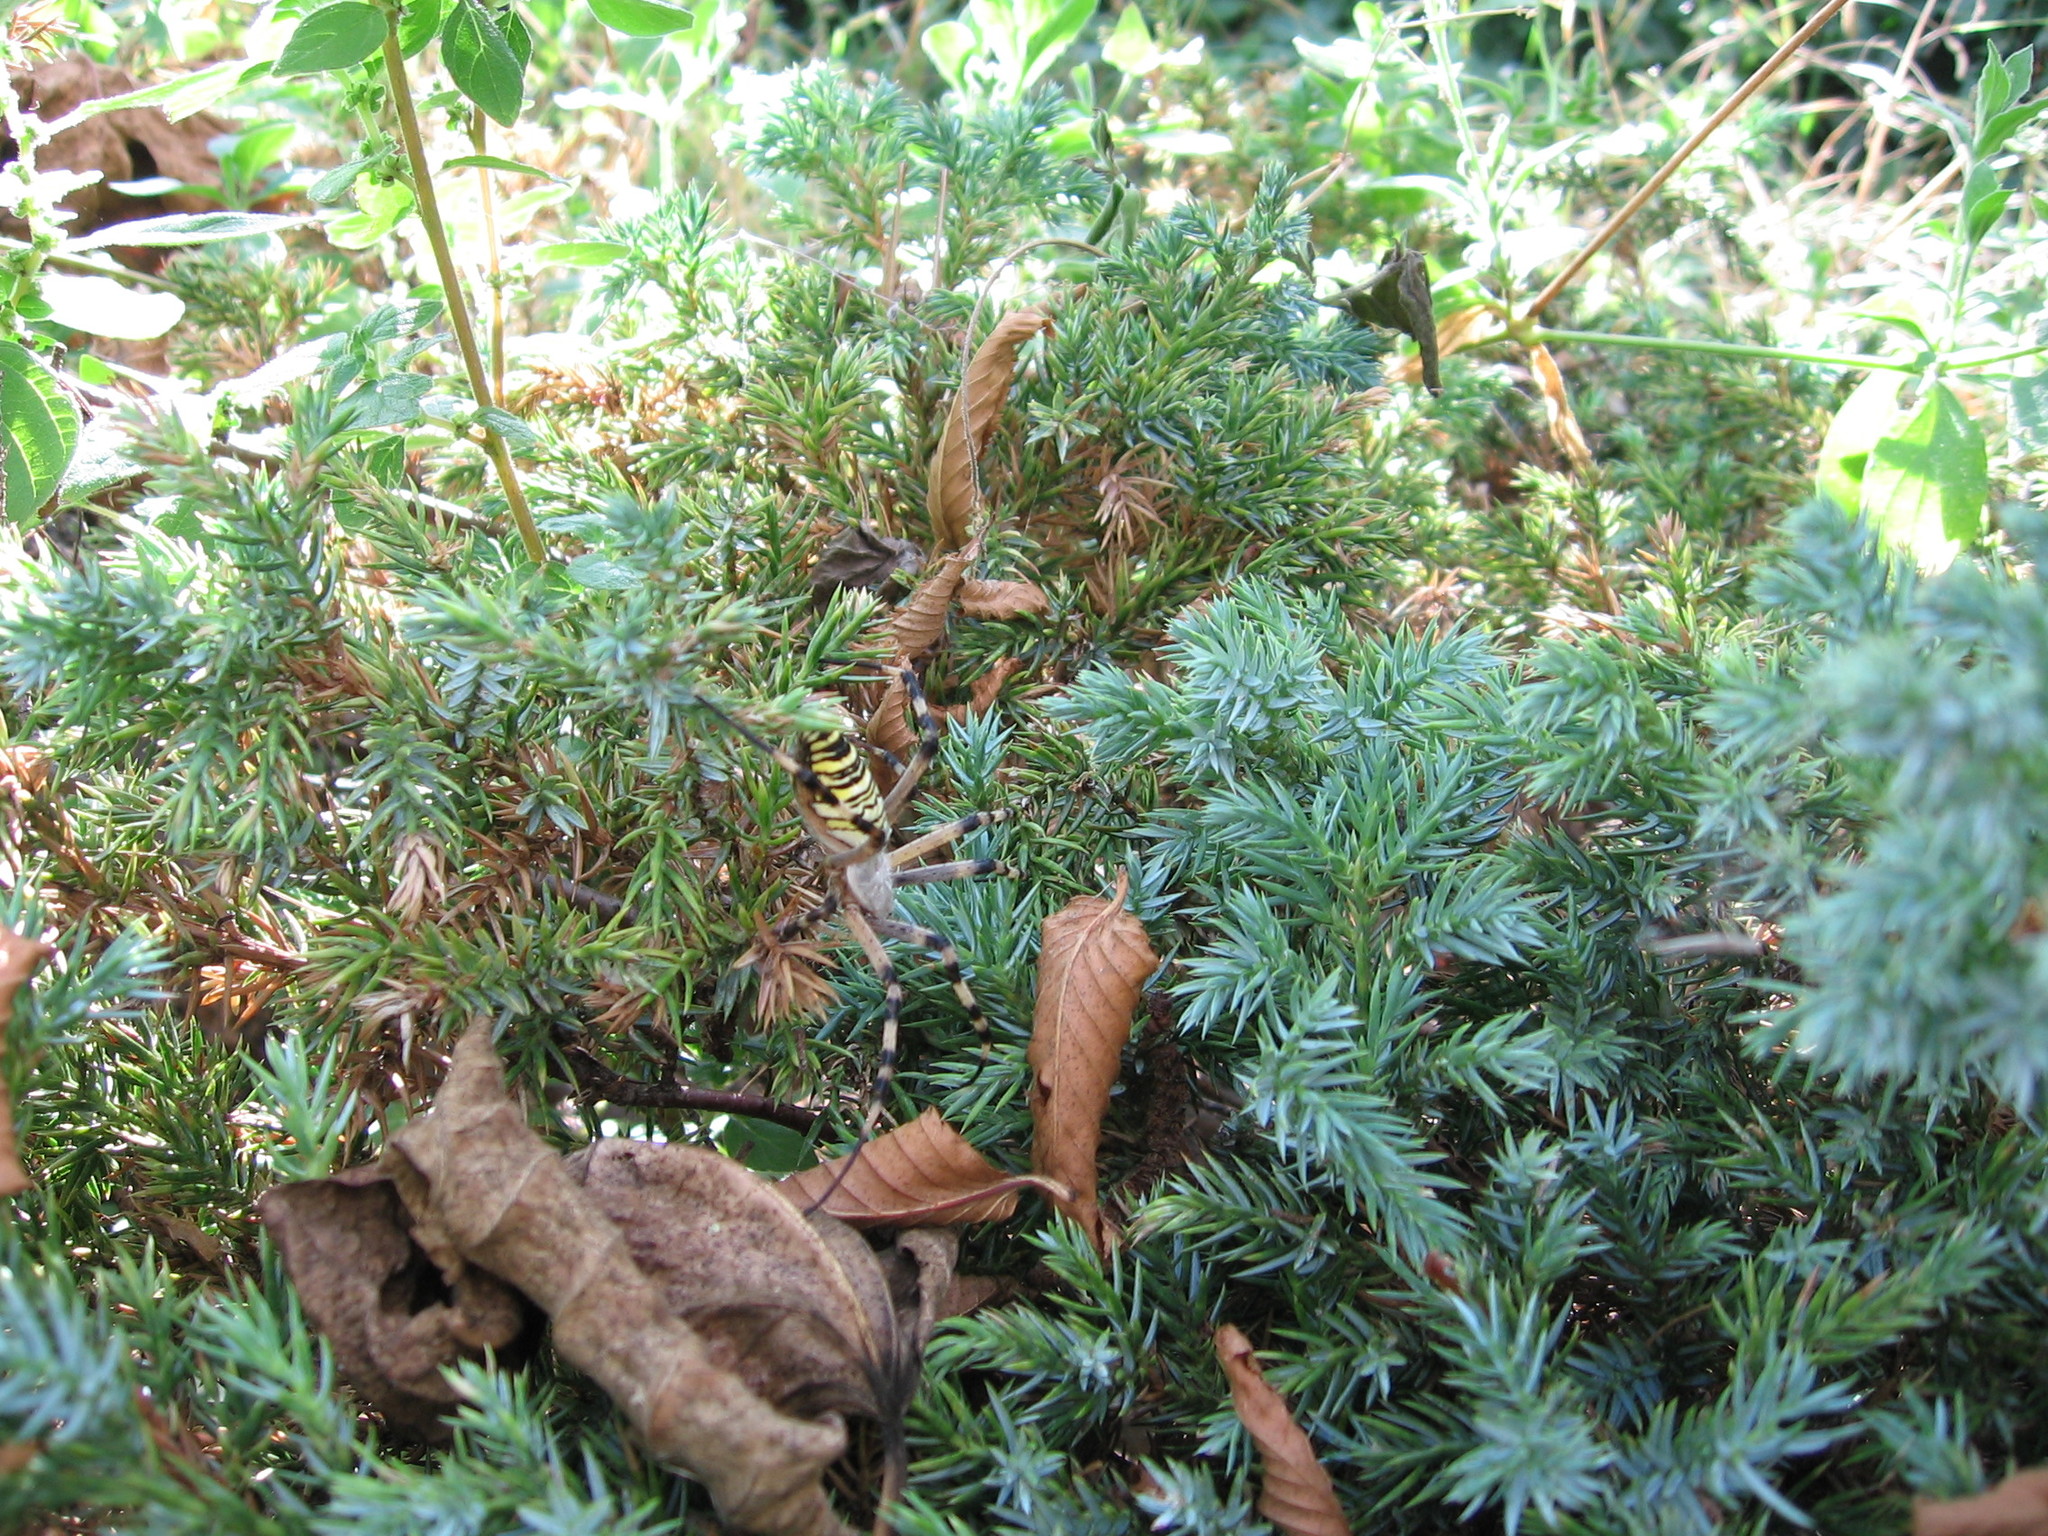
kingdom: Animalia
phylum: Arthropoda
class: Arachnida
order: Araneae
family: Araneidae
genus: Argiope
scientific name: Argiope bruennichi
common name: Wasp spider
